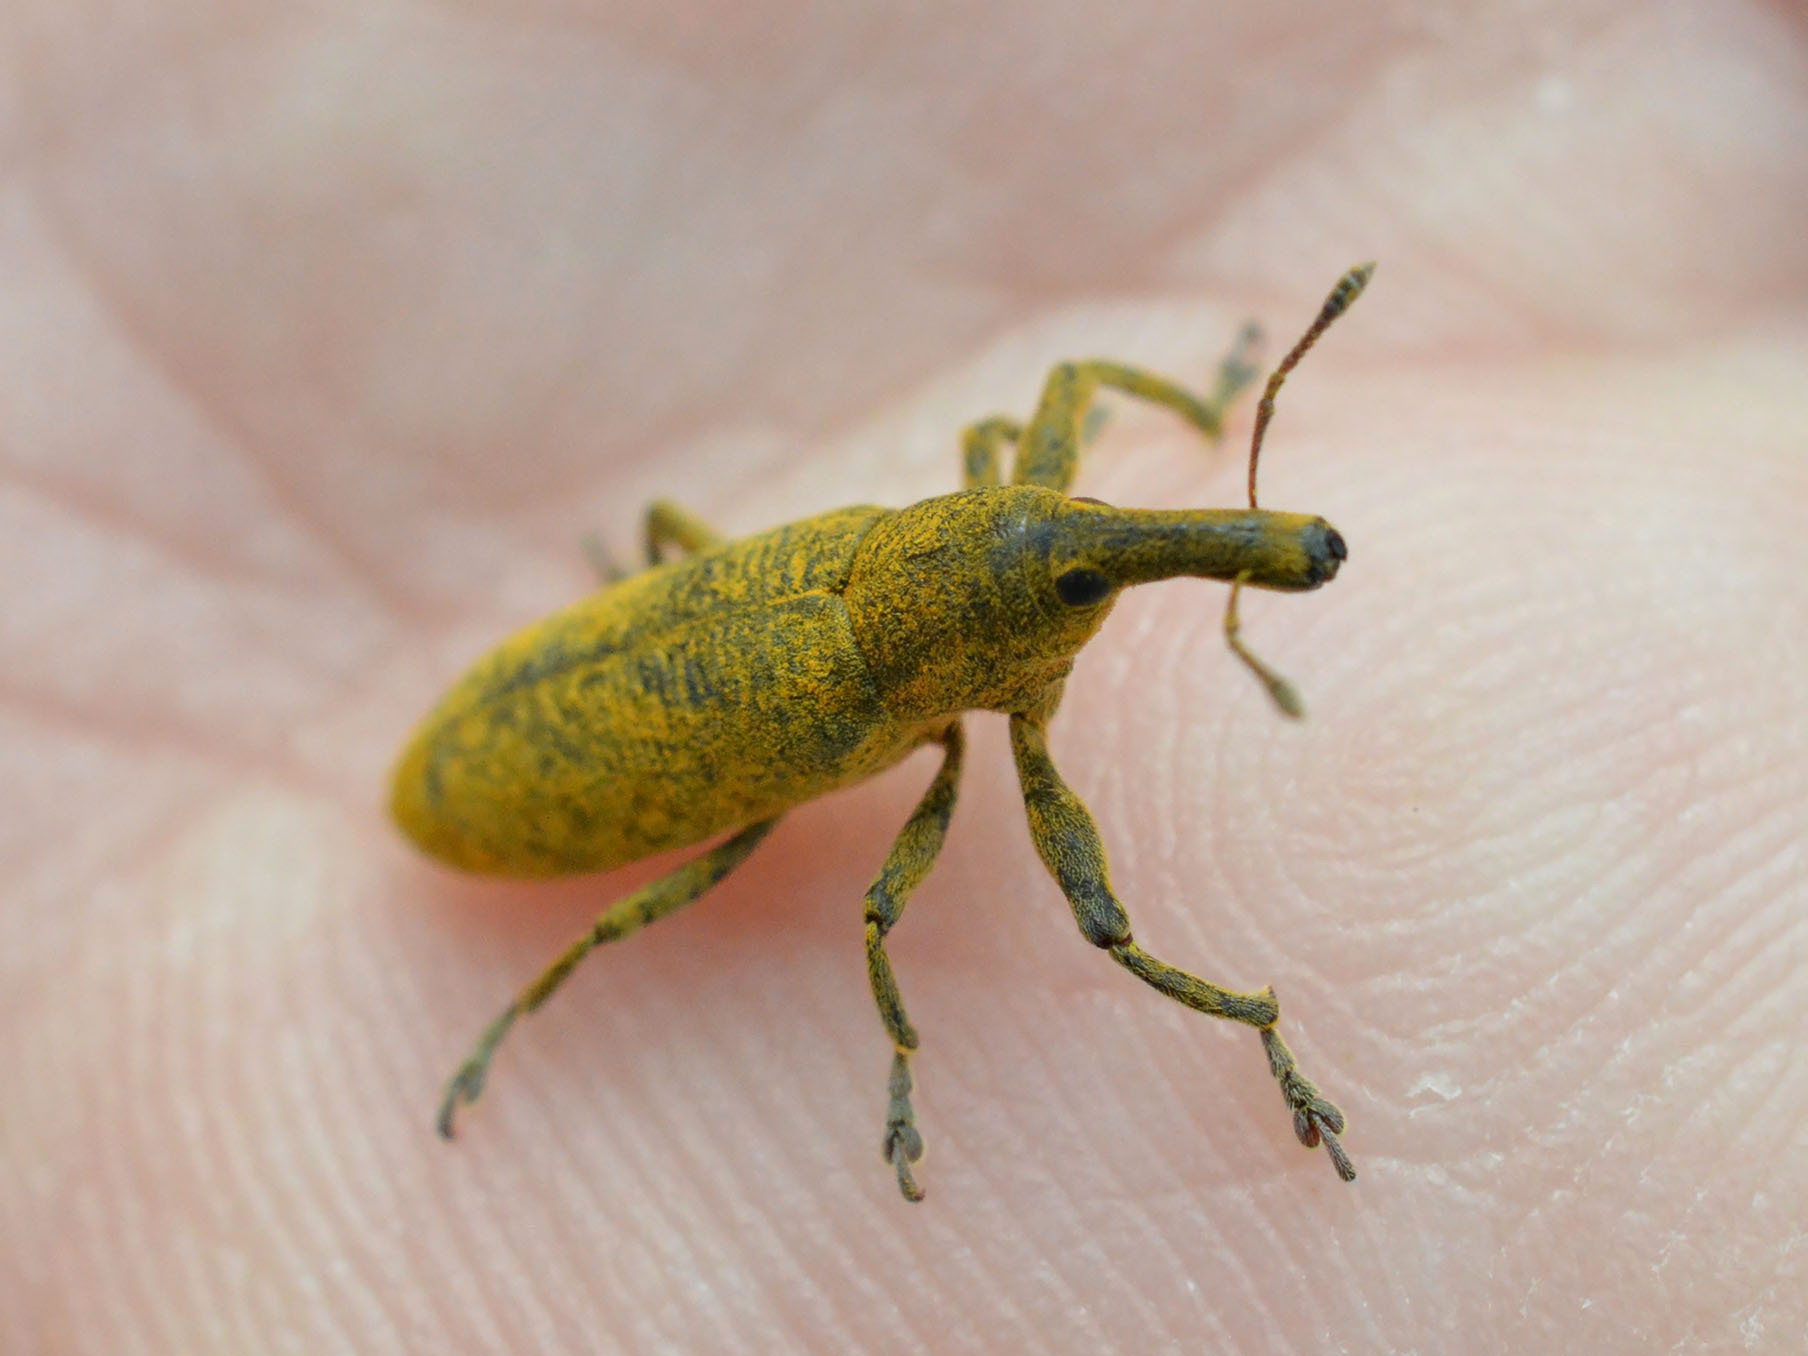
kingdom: Animalia
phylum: Arthropoda
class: Insecta
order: Coleoptera
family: Curculionidae
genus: Lixus
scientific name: Lixus pulverulentus
